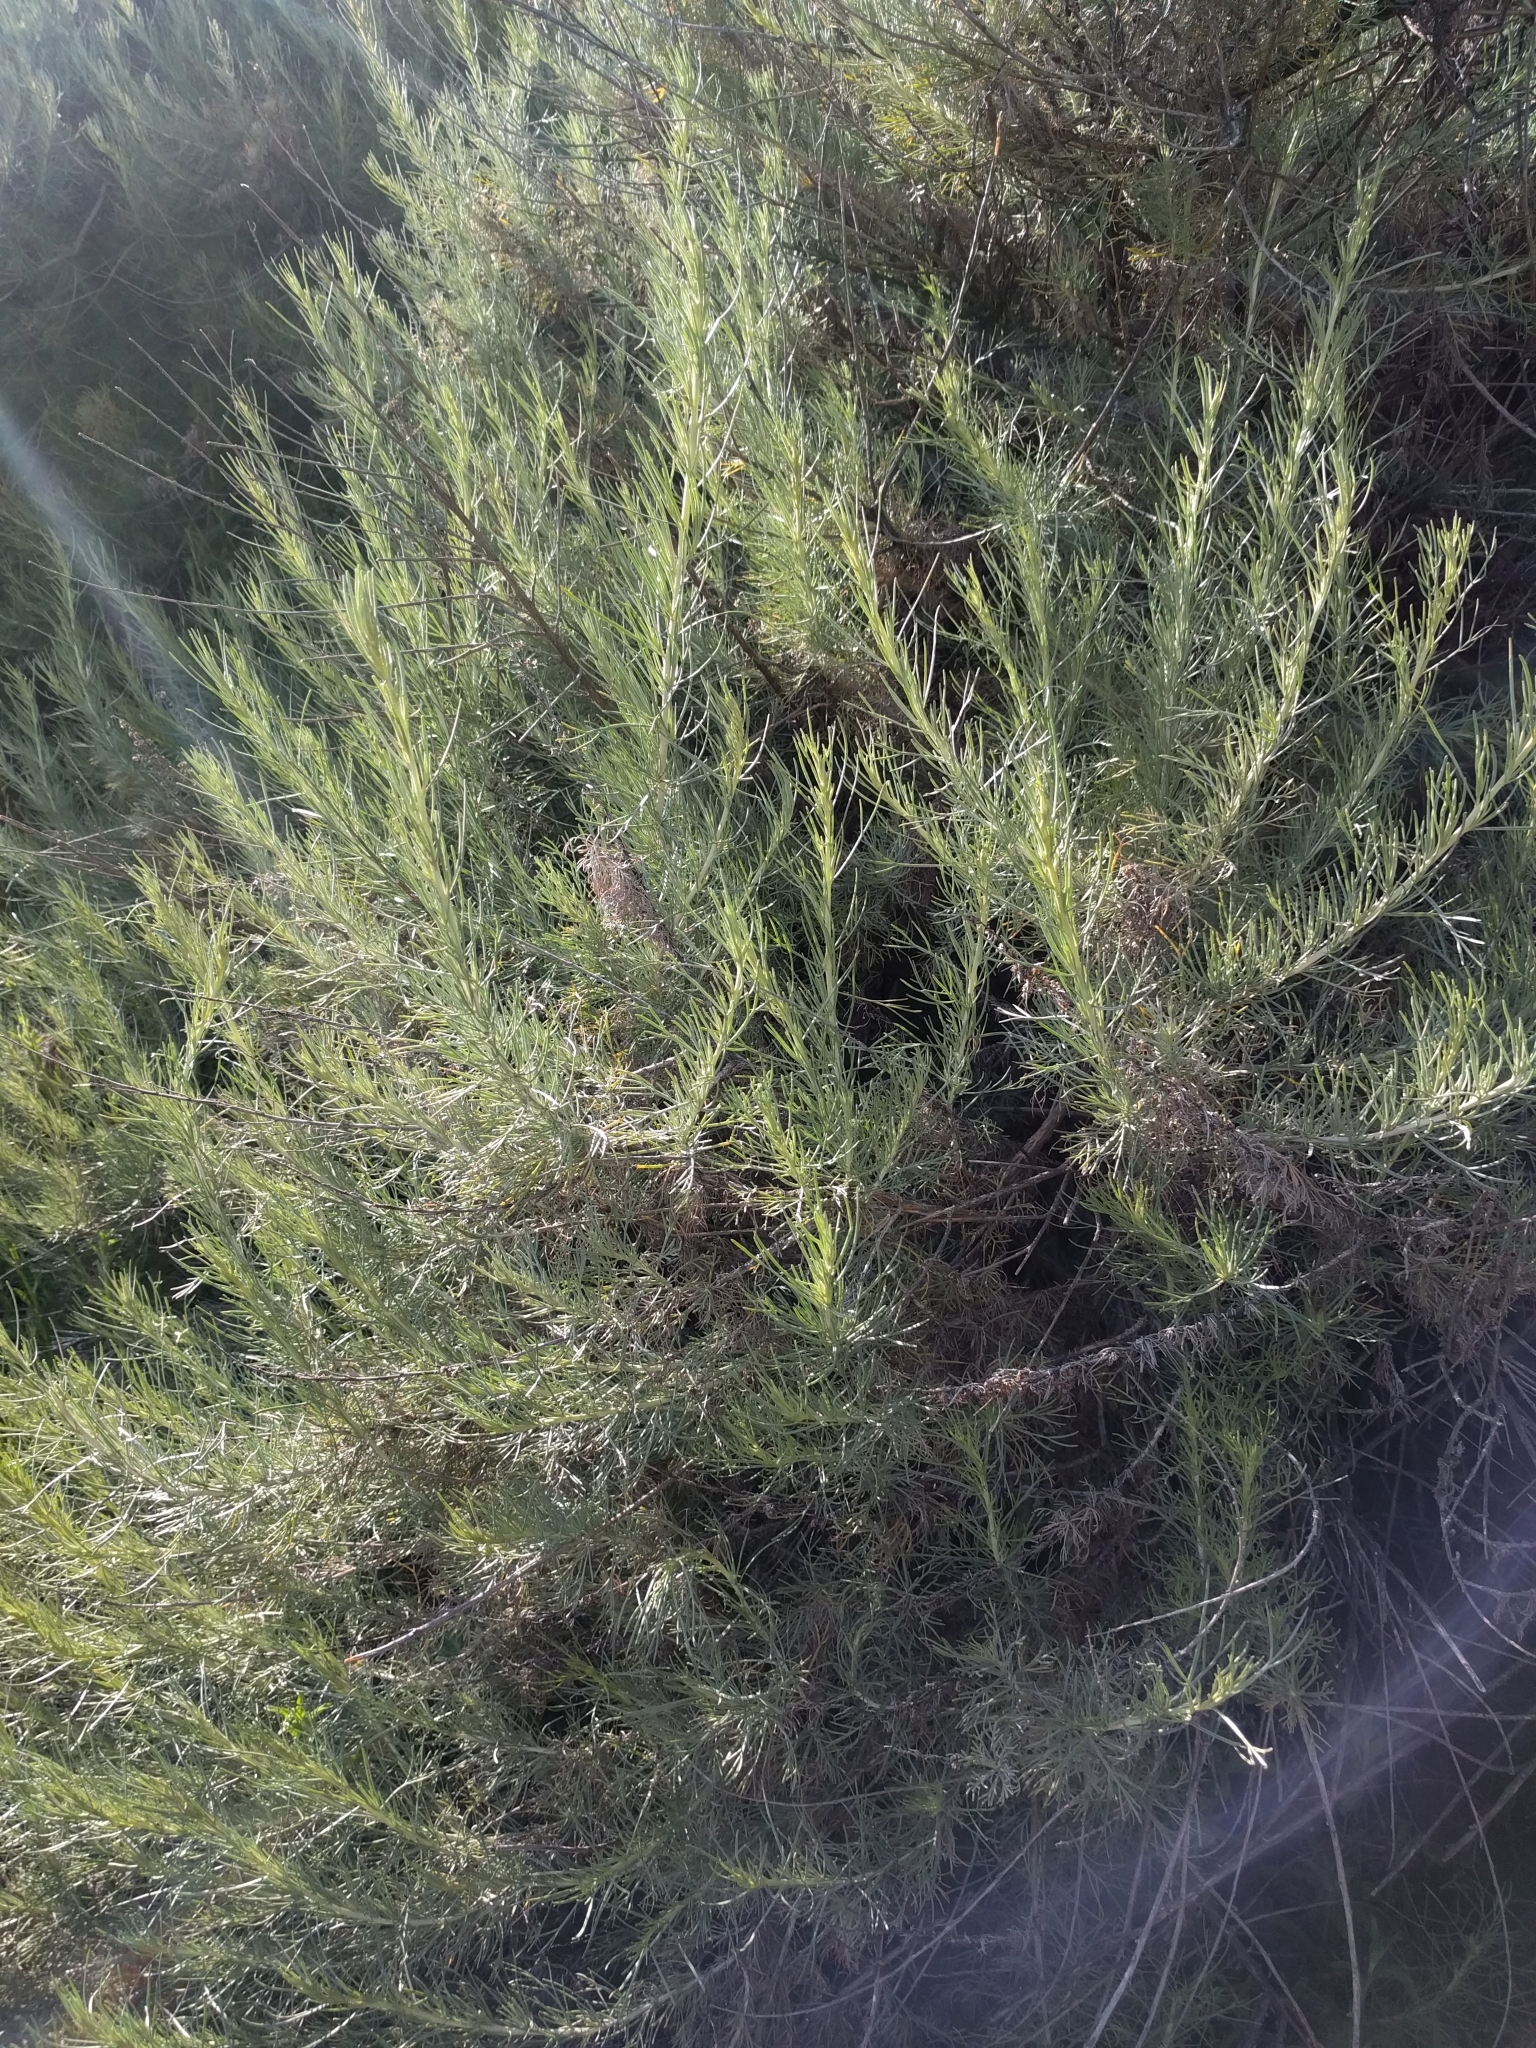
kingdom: Plantae
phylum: Tracheophyta
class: Magnoliopsida
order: Asterales
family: Asteraceae
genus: Artemisia
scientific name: Artemisia californica
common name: California sagebrush
